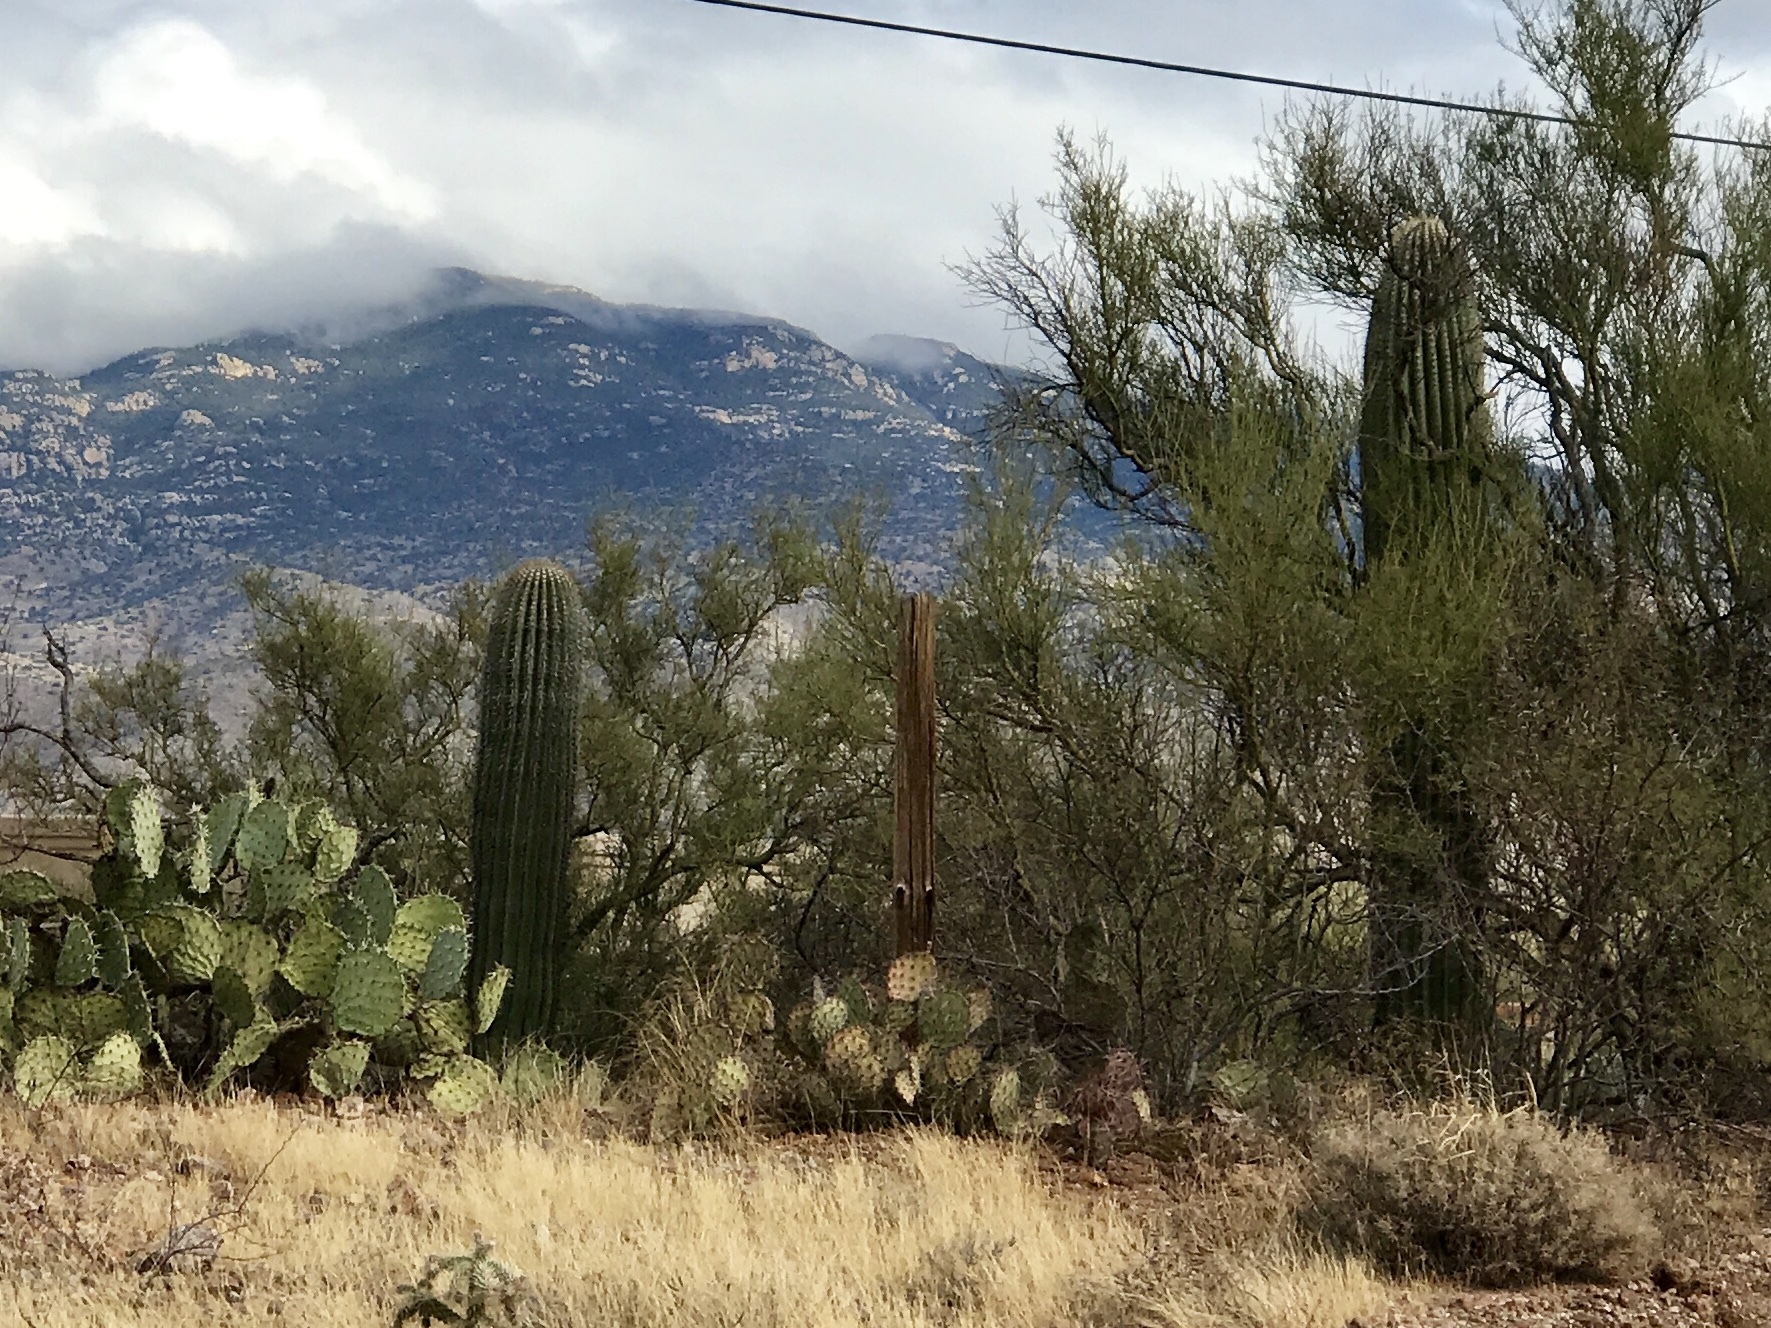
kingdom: Plantae
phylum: Tracheophyta
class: Magnoliopsida
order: Caryophyllales
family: Cactaceae
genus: Carnegiea
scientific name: Carnegiea gigantea
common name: Saguaro
